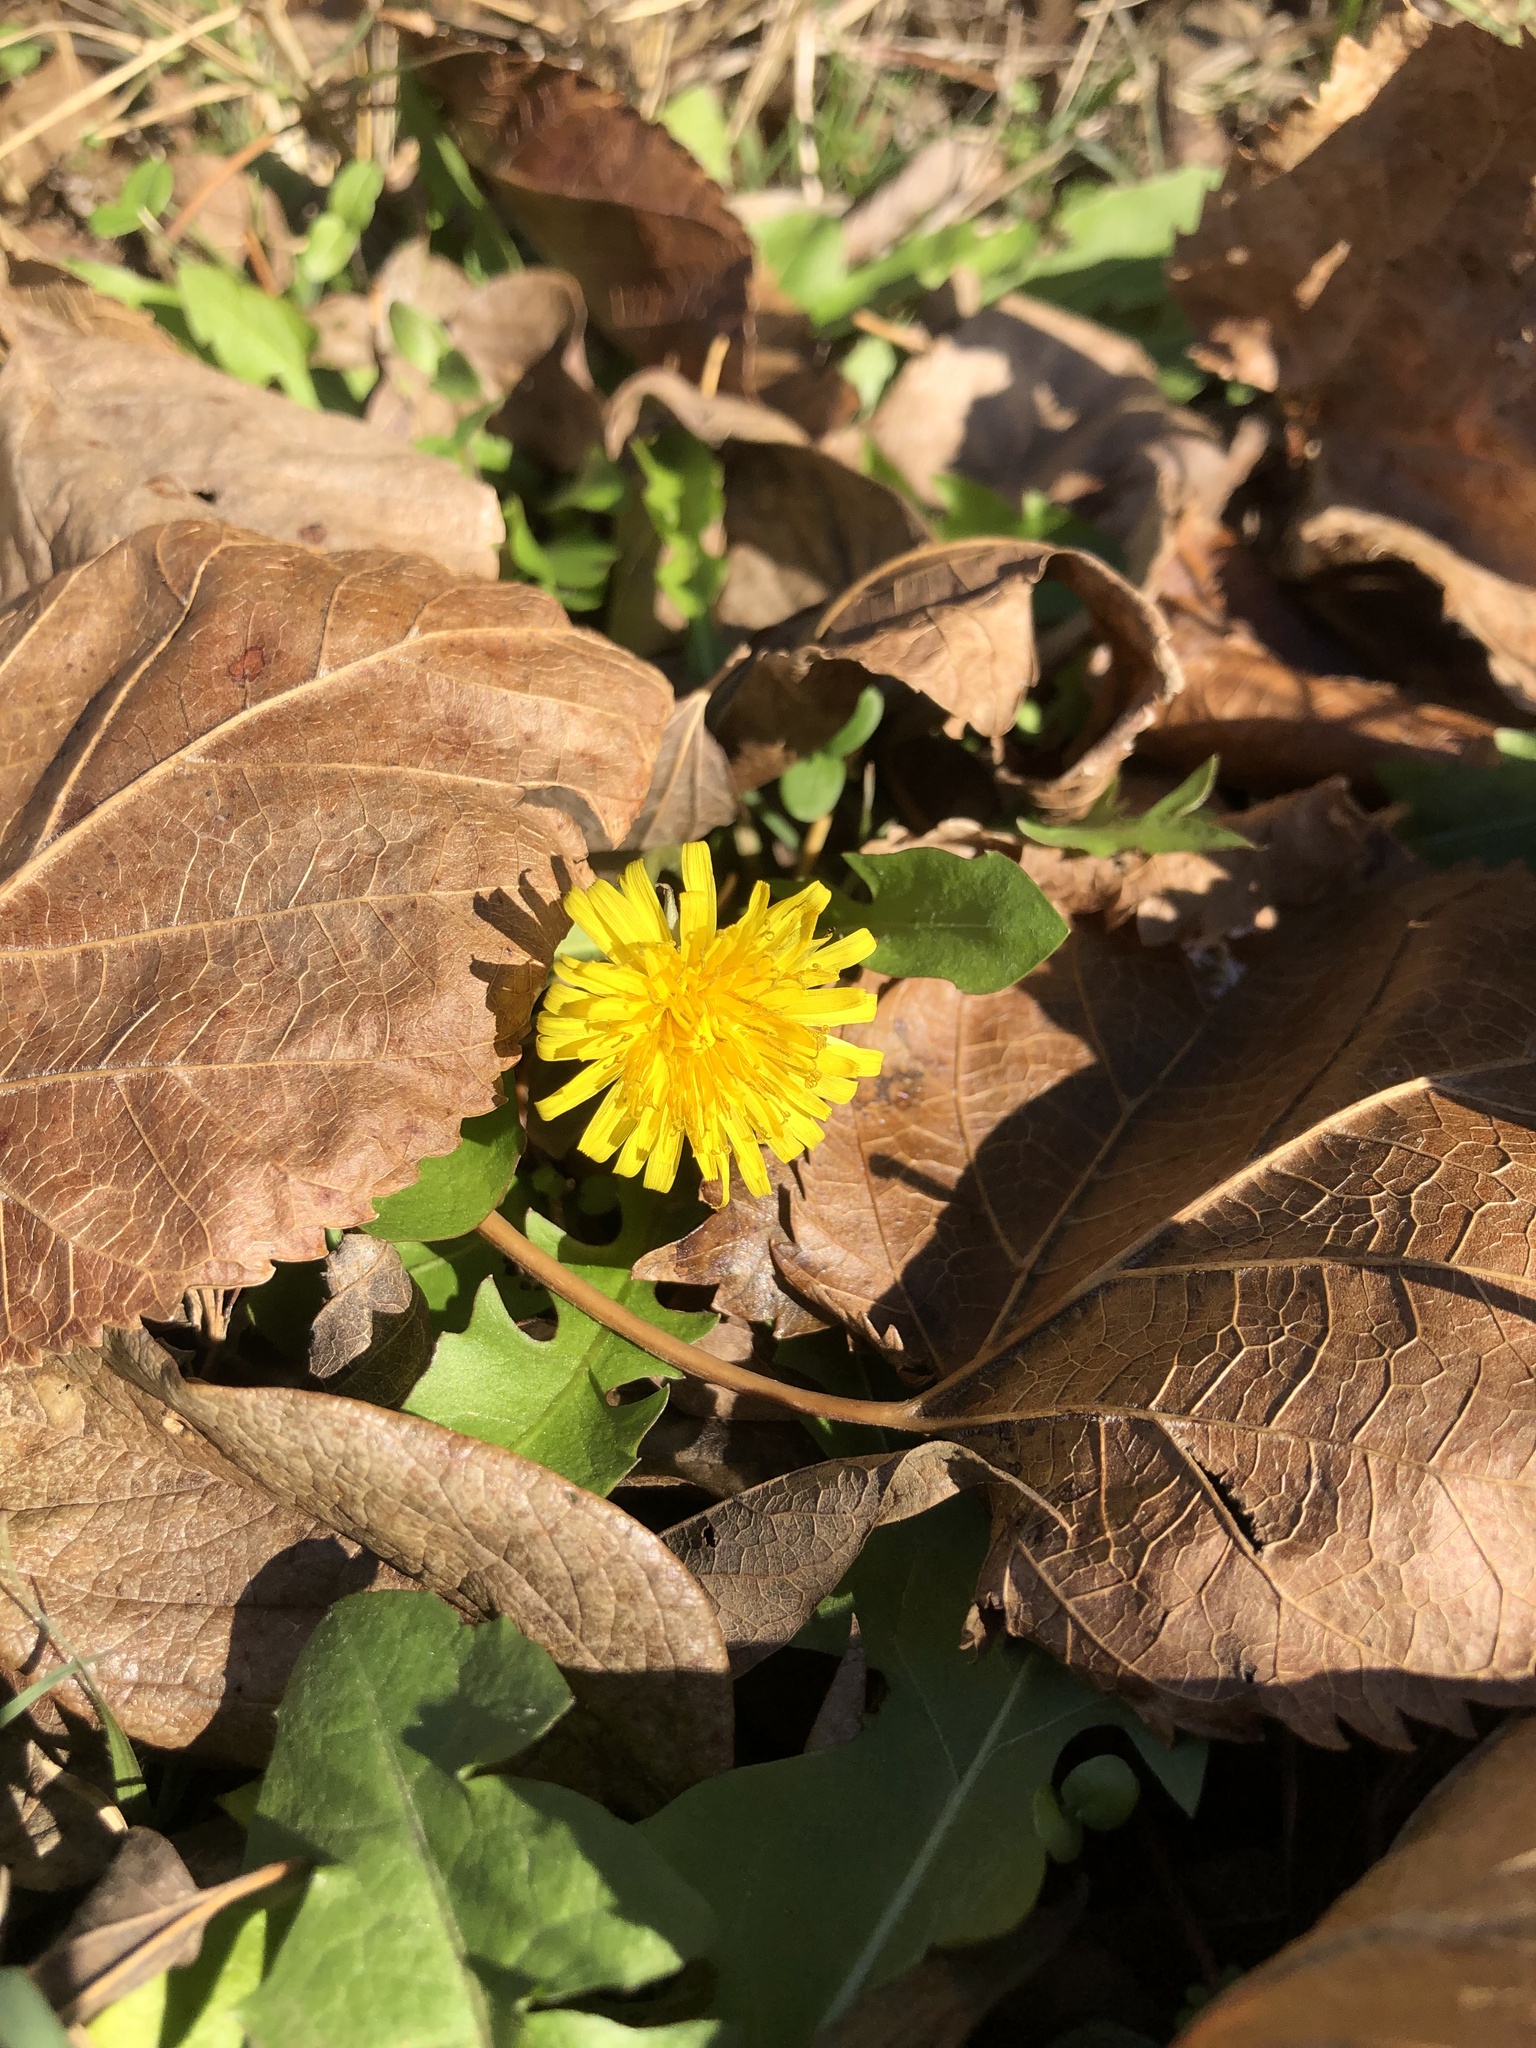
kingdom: Plantae
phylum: Tracheophyta
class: Magnoliopsida
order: Asterales
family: Asteraceae
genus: Taraxacum
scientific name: Taraxacum
